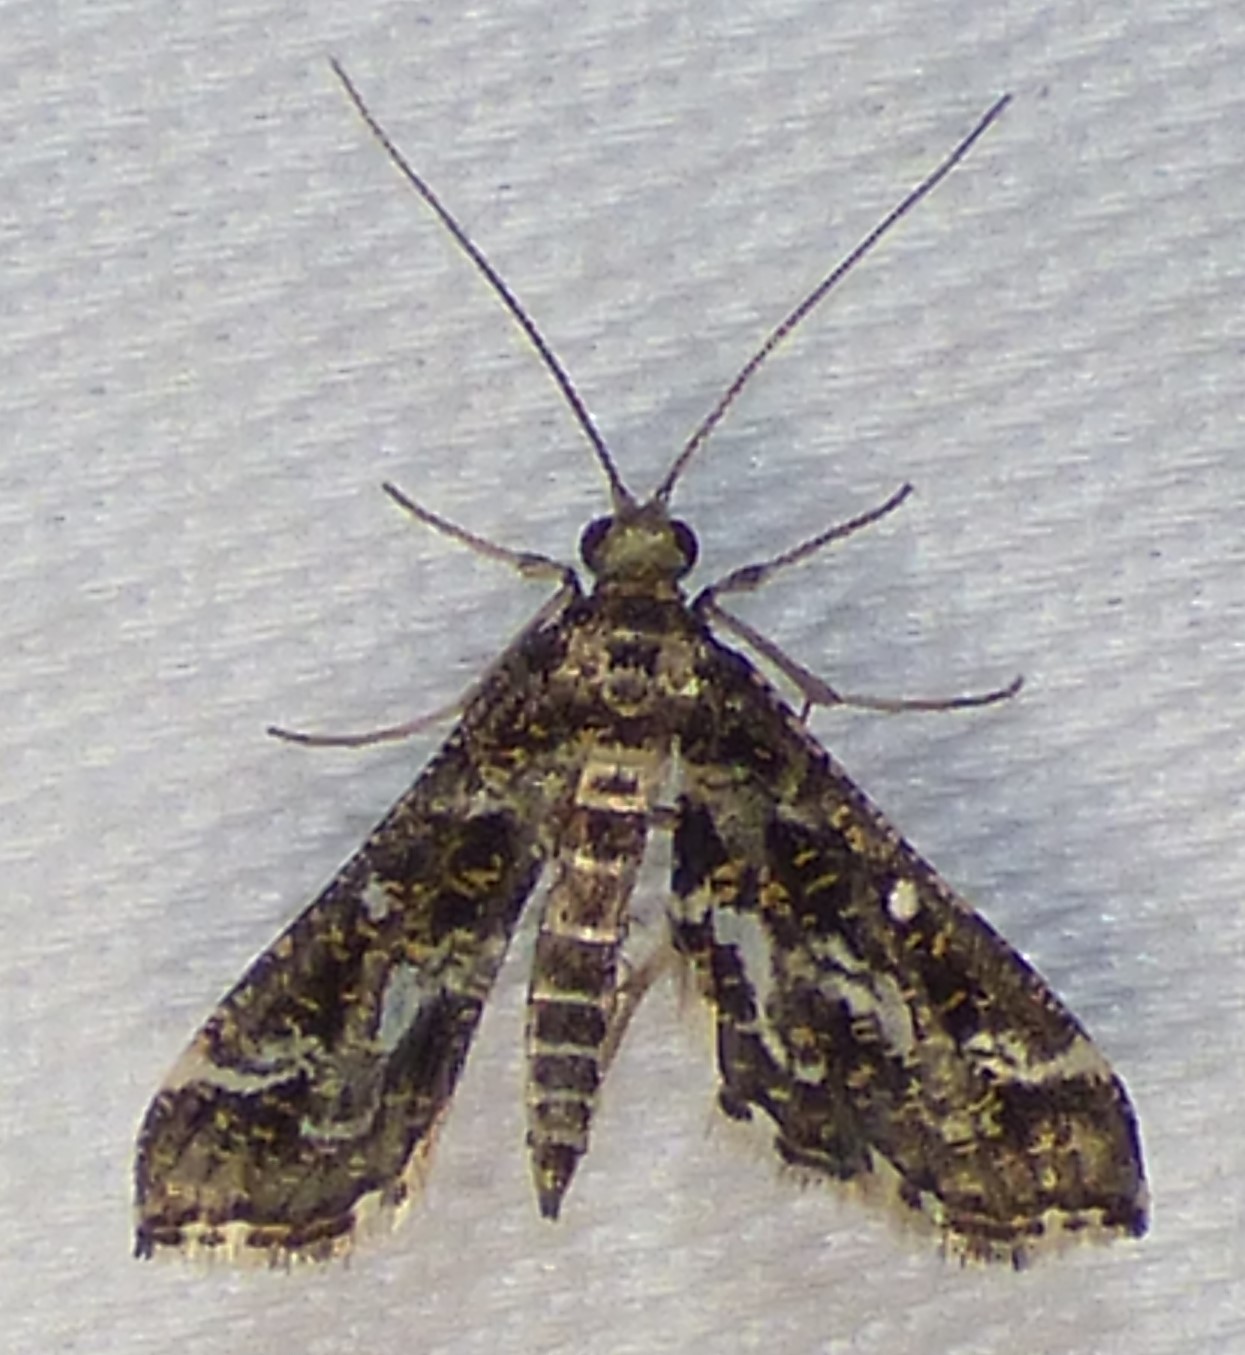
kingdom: Animalia
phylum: Arthropoda
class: Insecta
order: Lepidoptera
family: Crambidae
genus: Diasemiopsis
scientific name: Diasemiopsis ramburialis
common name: Vagrant china-mark
